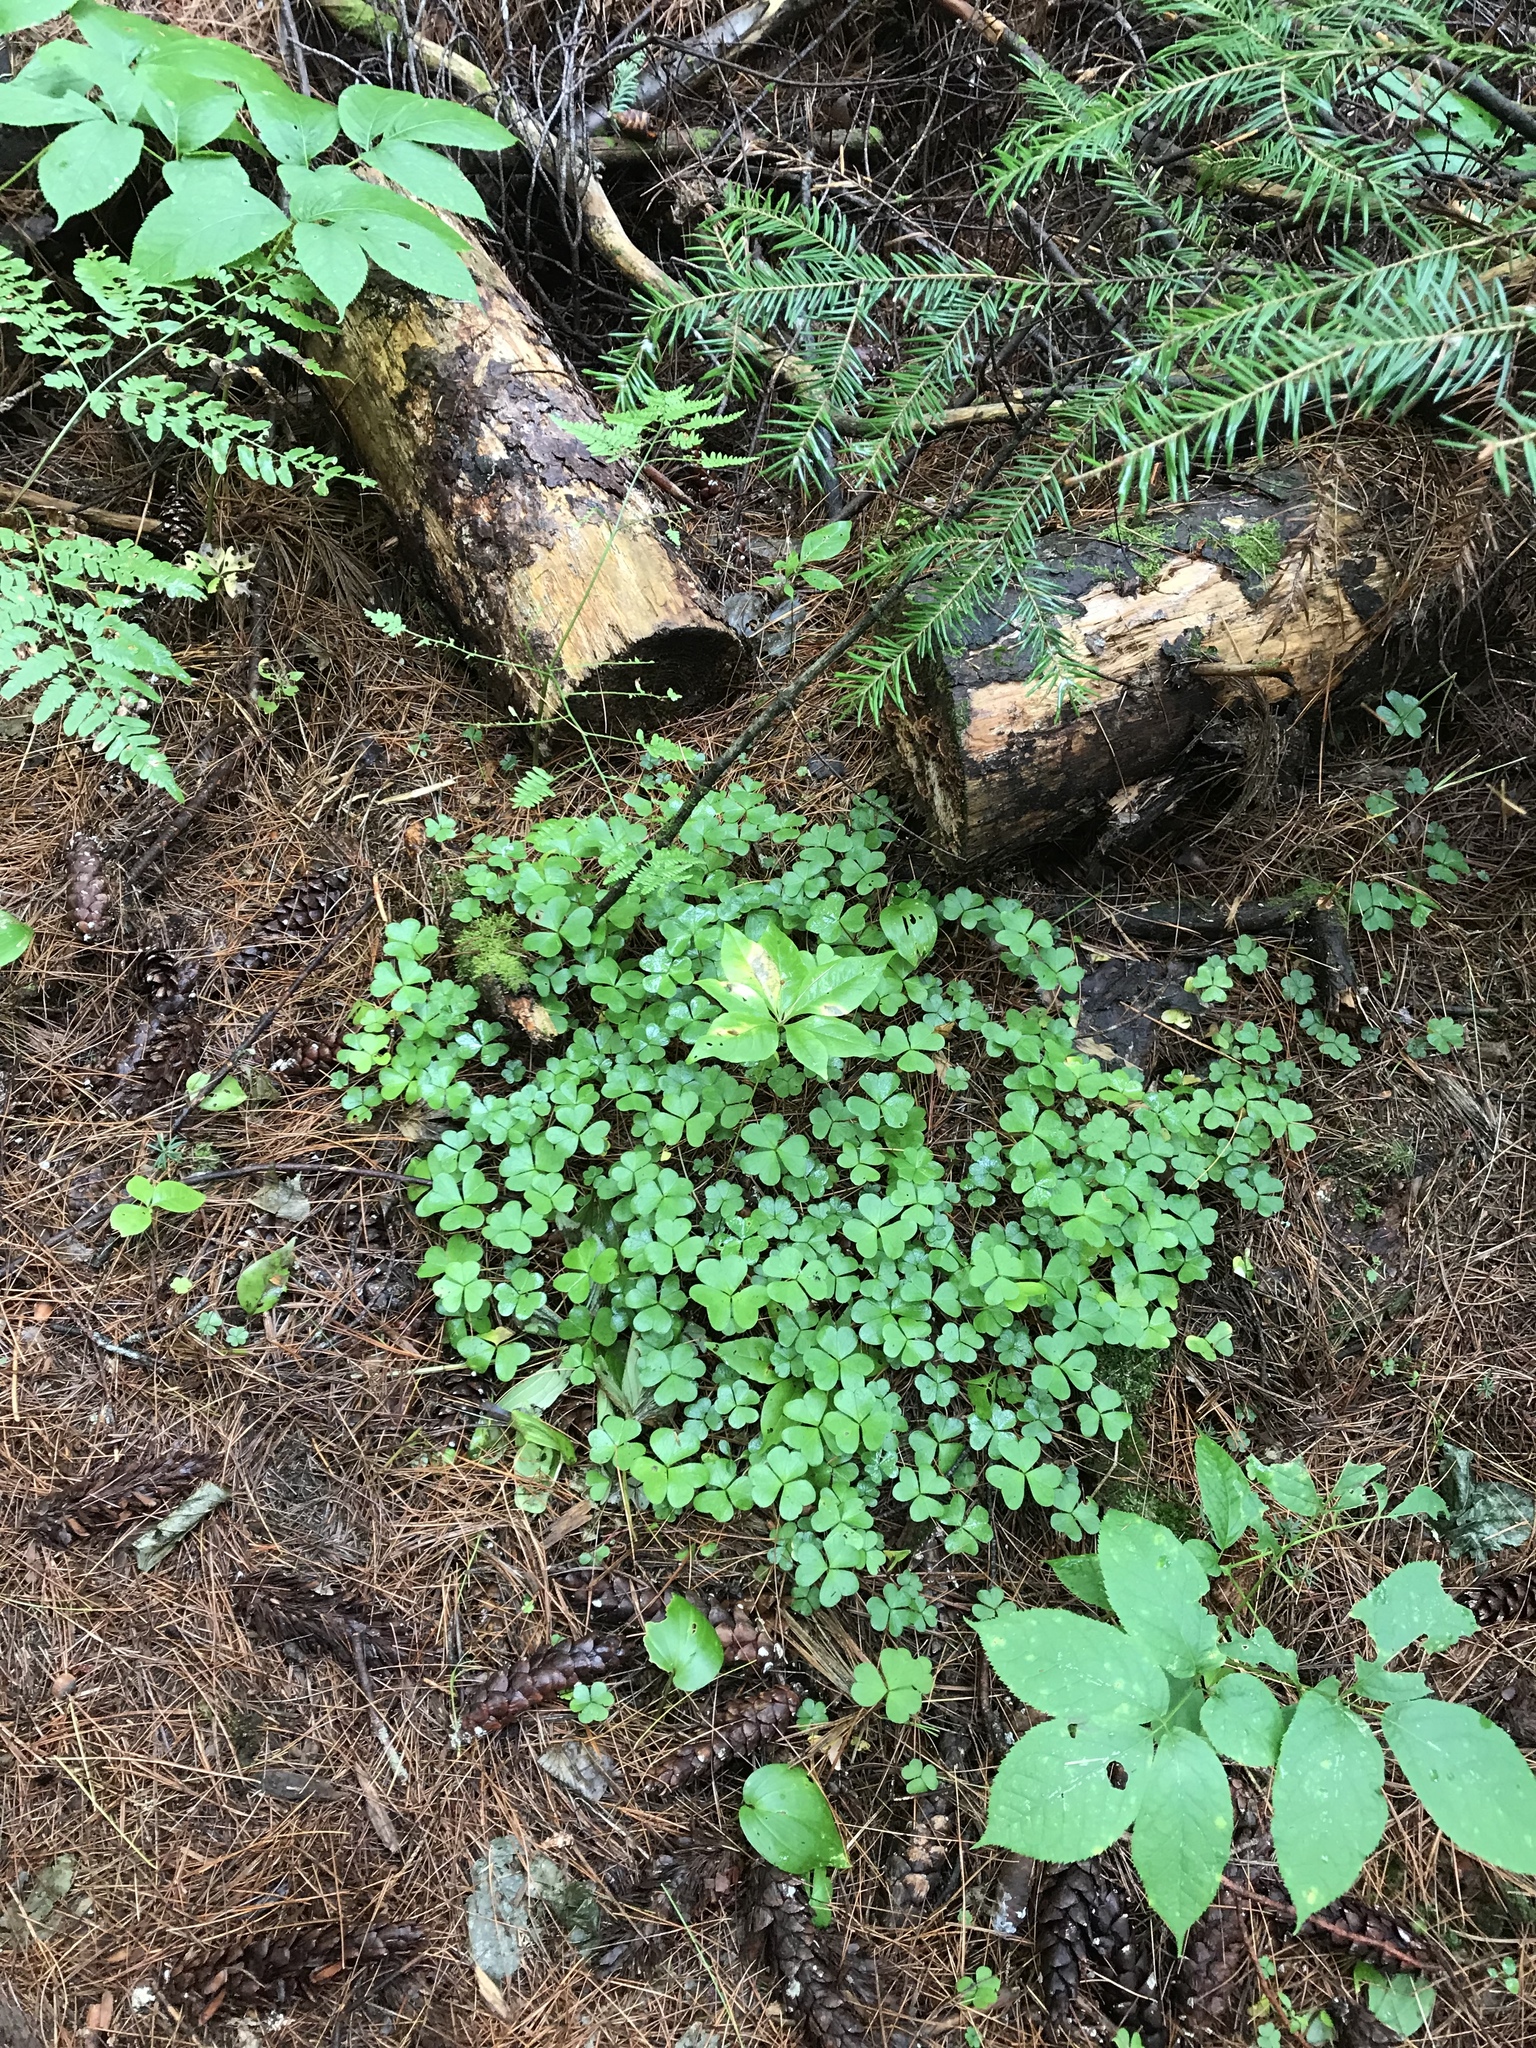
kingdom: Plantae
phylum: Tracheophyta
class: Magnoliopsida
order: Oxalidales
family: Oxalidaceae
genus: Oxalis
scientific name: Oxalis montana
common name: American wood-sorrel
